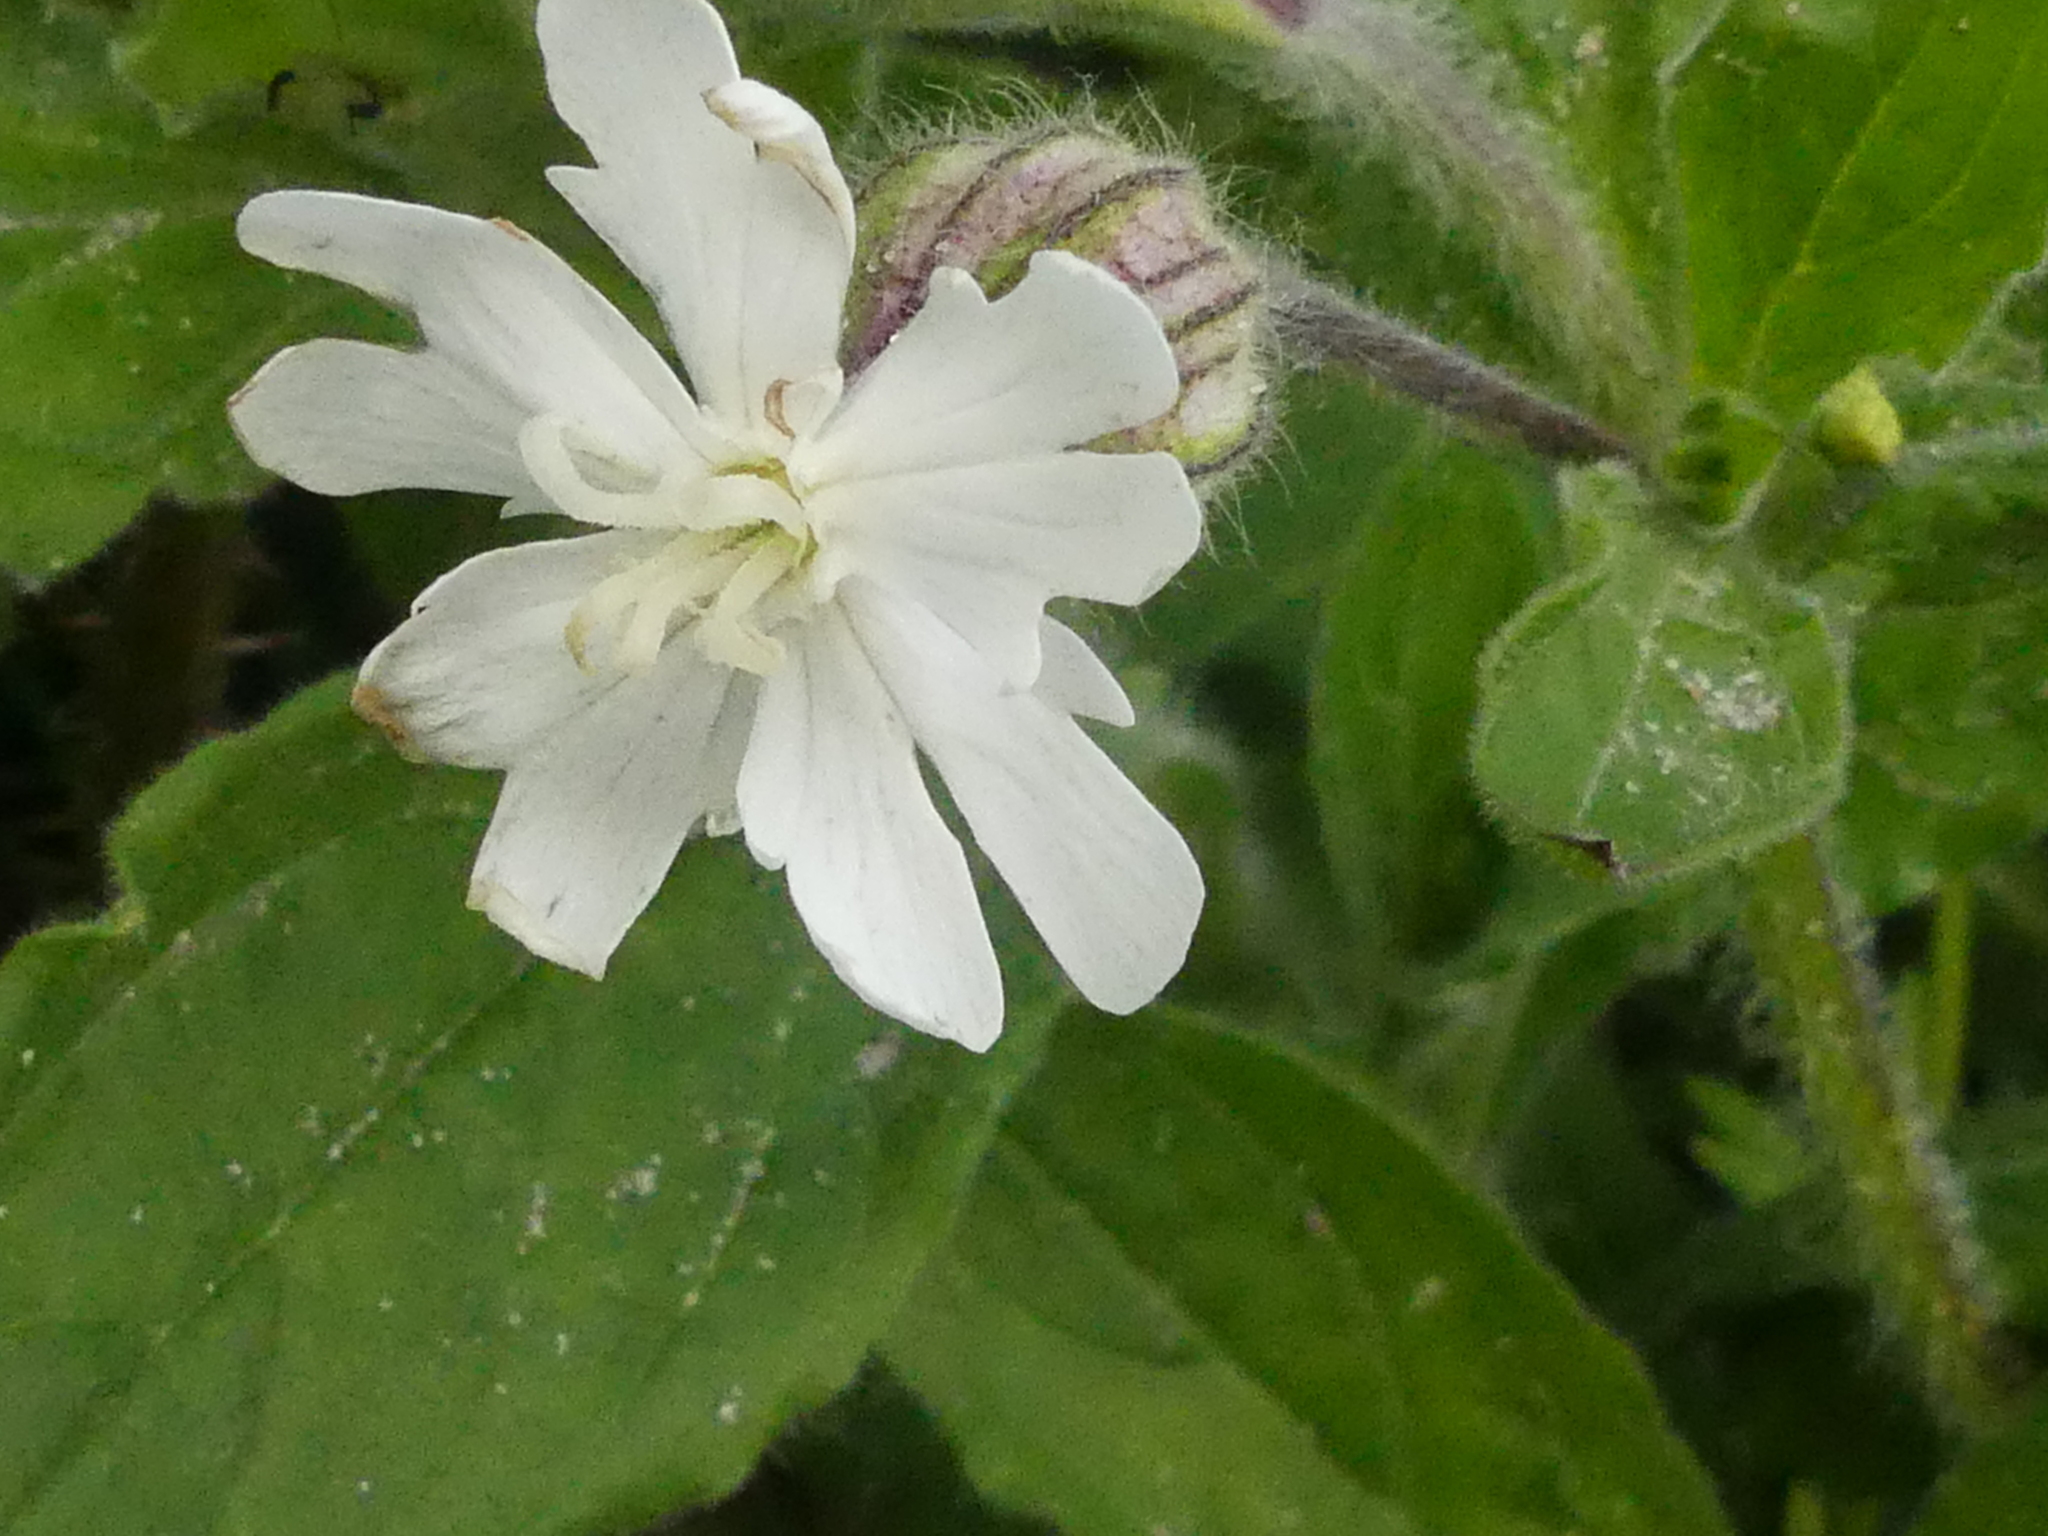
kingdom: Plantae
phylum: Tracheophyta
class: Magnoliopsida
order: Caryophyllales
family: Caryophyllaceae
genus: Silene
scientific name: Silene latifolia
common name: White campion
